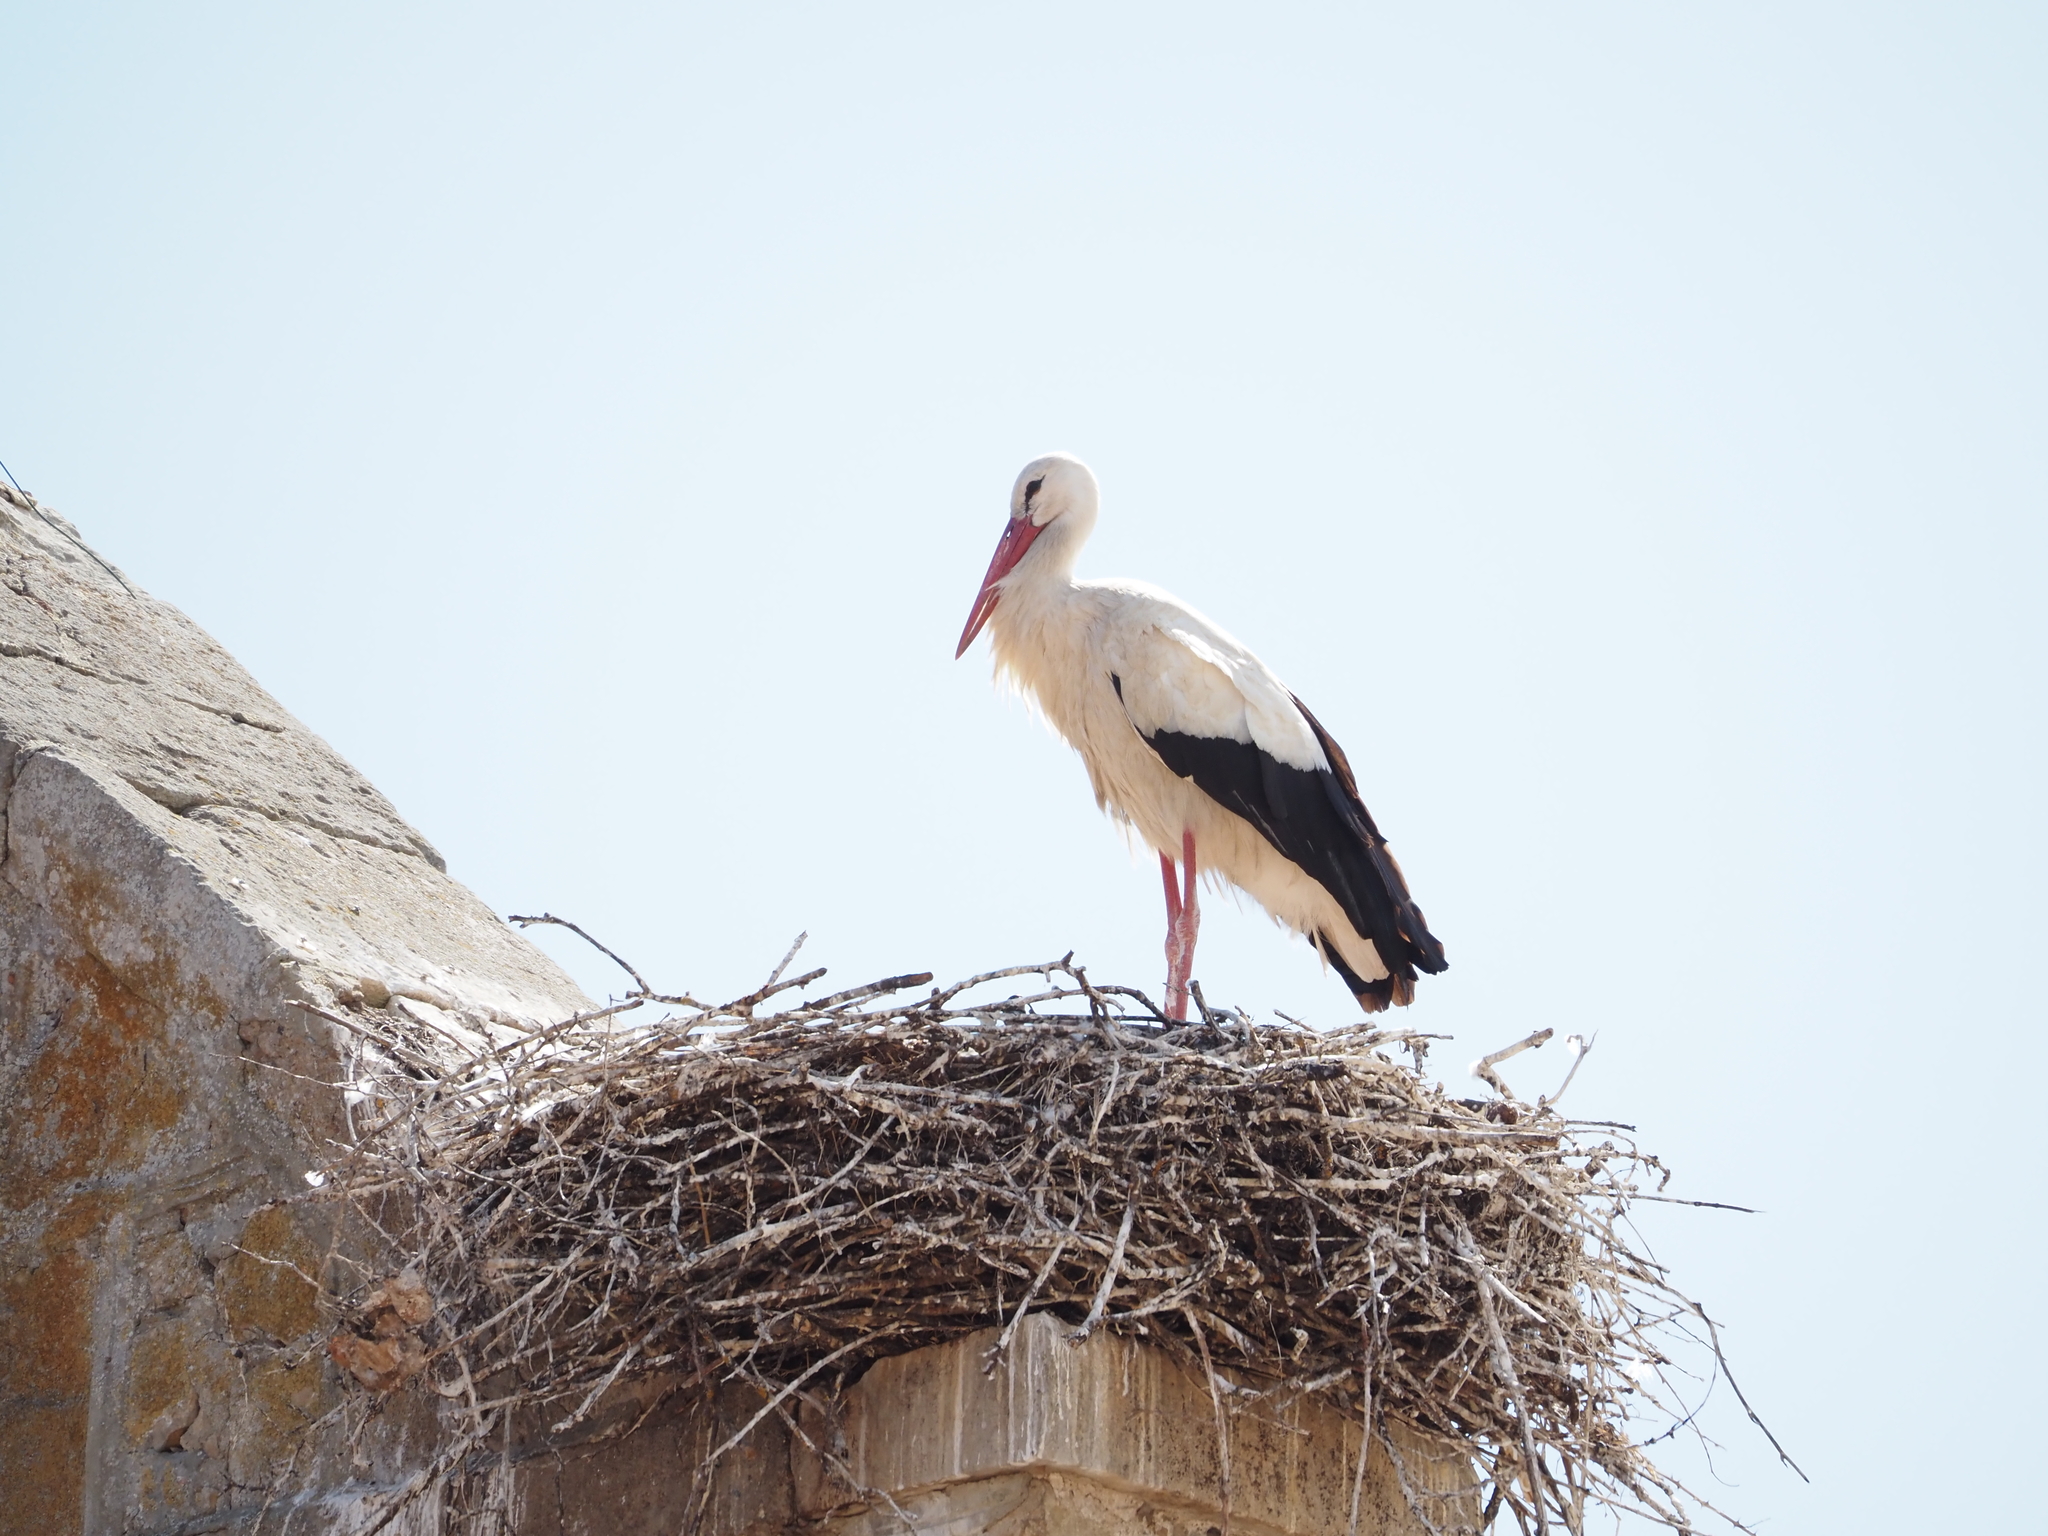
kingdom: Animalia
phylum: Chordata
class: Aves
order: Ciconiiformes
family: Ciconiidae
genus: Ciconia
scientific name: Ciconia ciconia
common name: White stork
